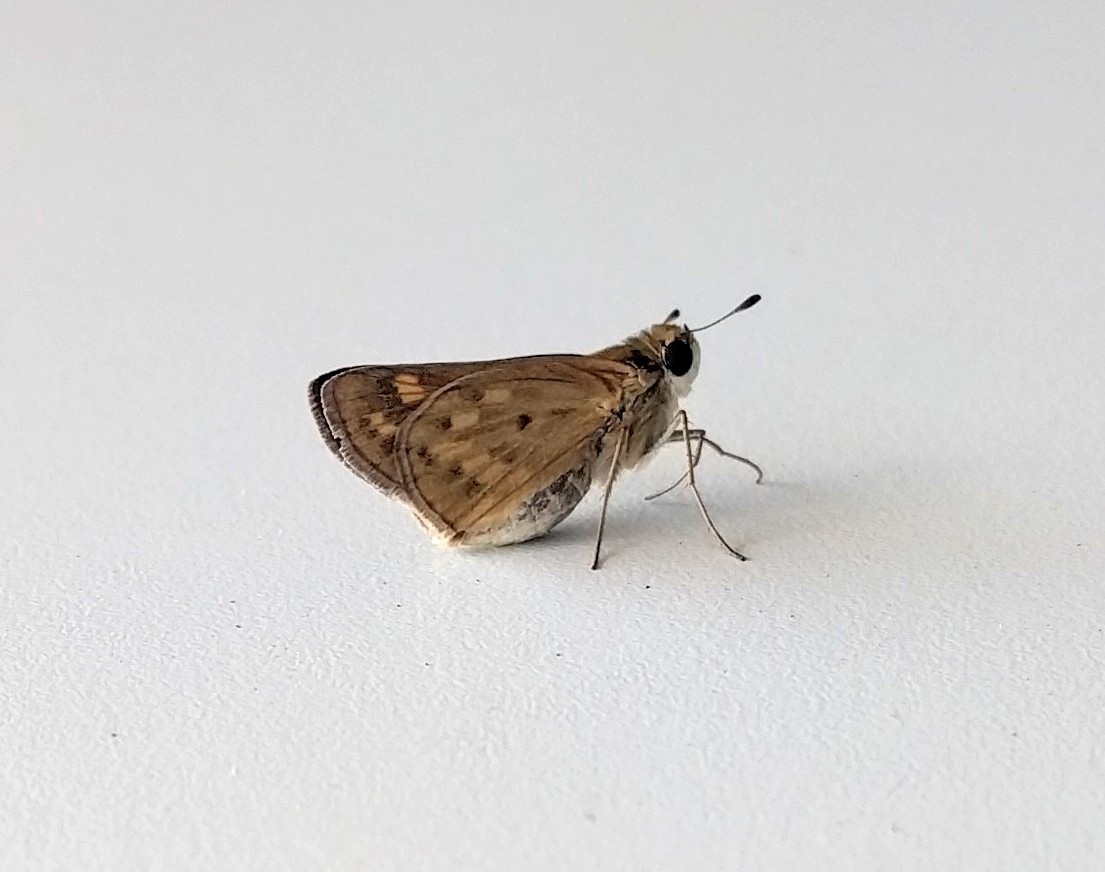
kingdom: Animalia
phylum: Arthropoda
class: Insecta
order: Lepidoptera
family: Hesperiidae
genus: Hylephila
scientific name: Hylephila phyleus
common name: Fiery skipper
